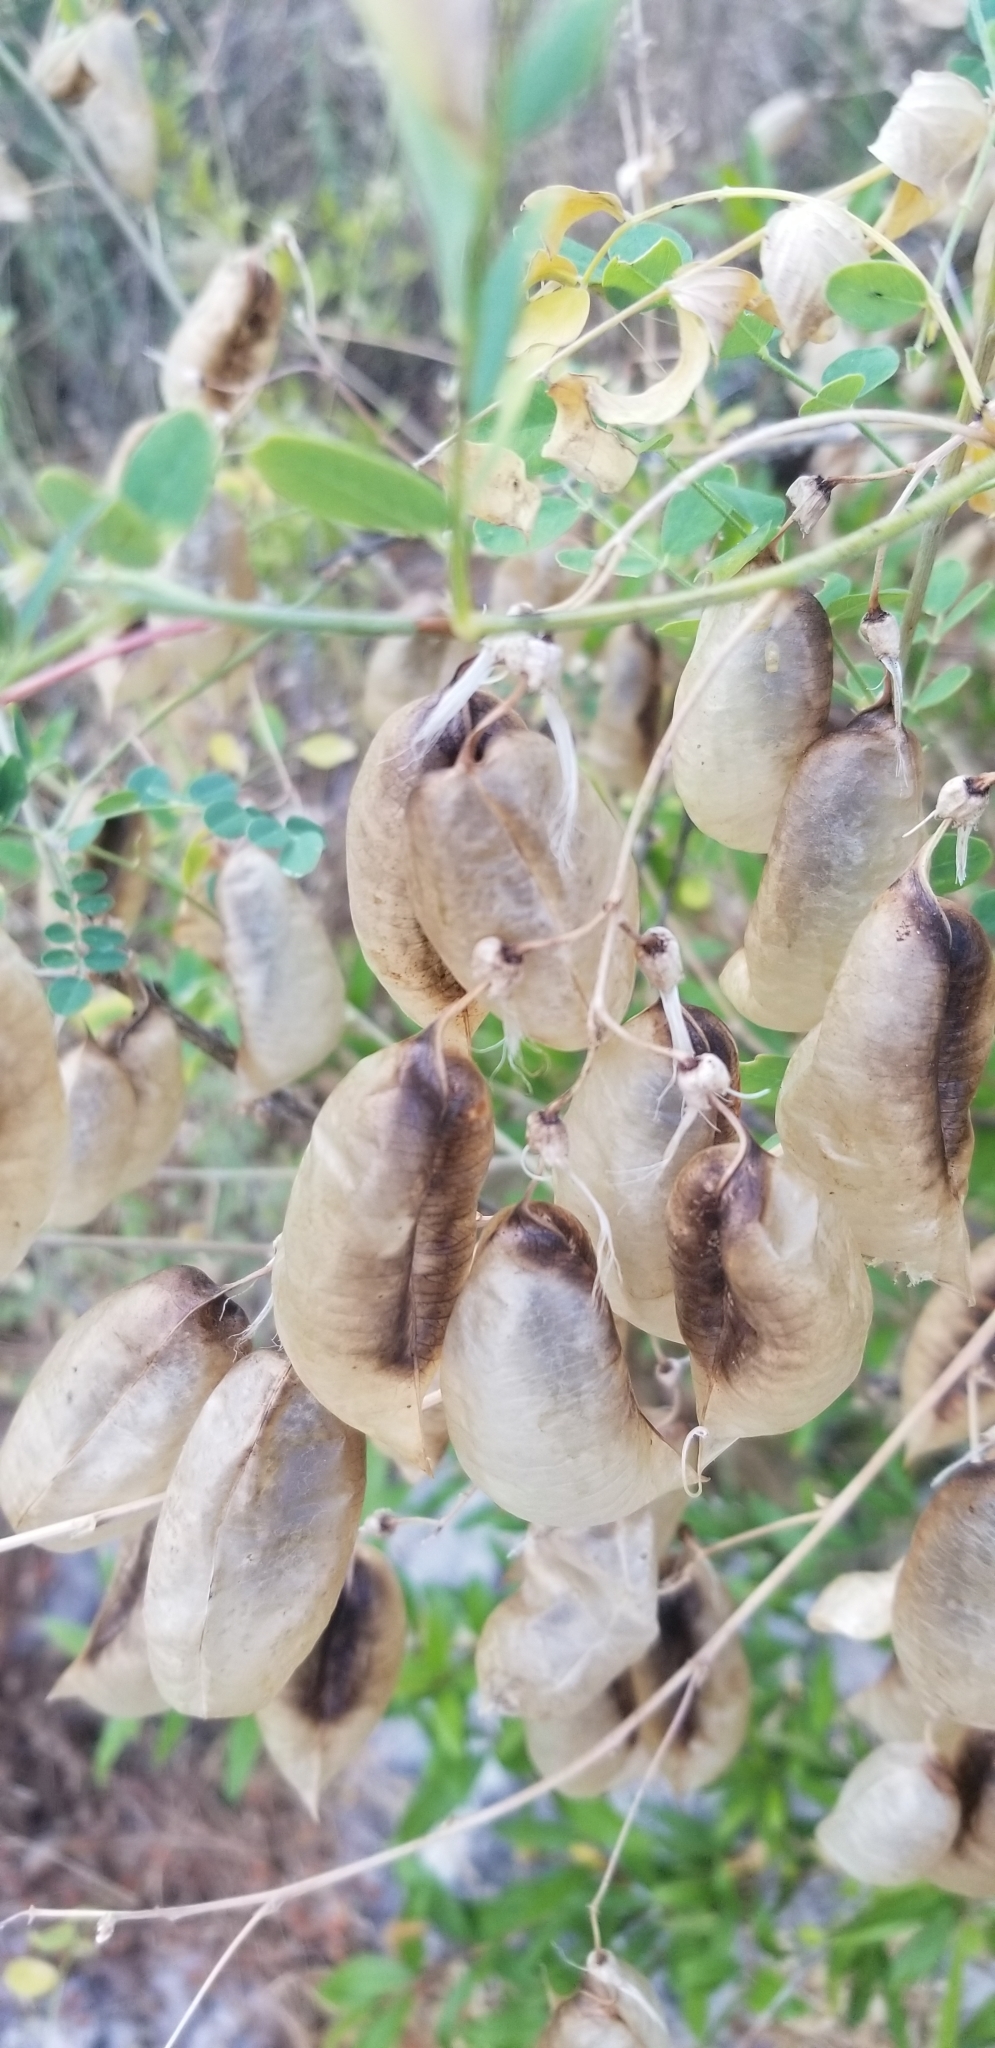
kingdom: Plantae
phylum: Tracheophyta
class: Magnoliopsida
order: Fabales
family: Fabaceae
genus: Colutea
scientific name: Colutea arborescens
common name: Bladder-senna
